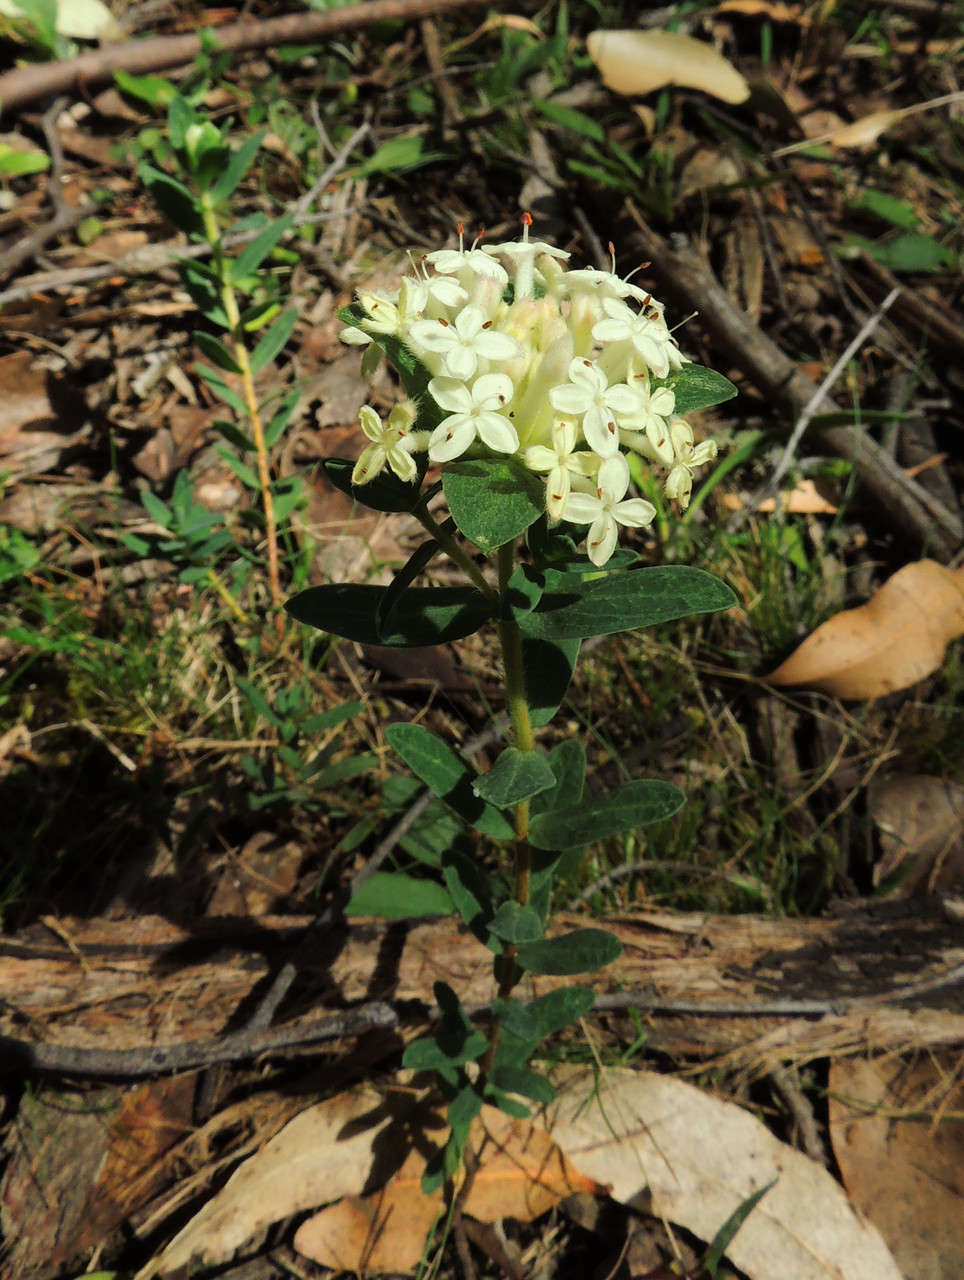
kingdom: Plantae
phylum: Tracheophyta
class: Magnoliopsida
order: Malvales
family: Thymelaeaceae
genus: Pimelea
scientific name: Pimelea humilis
